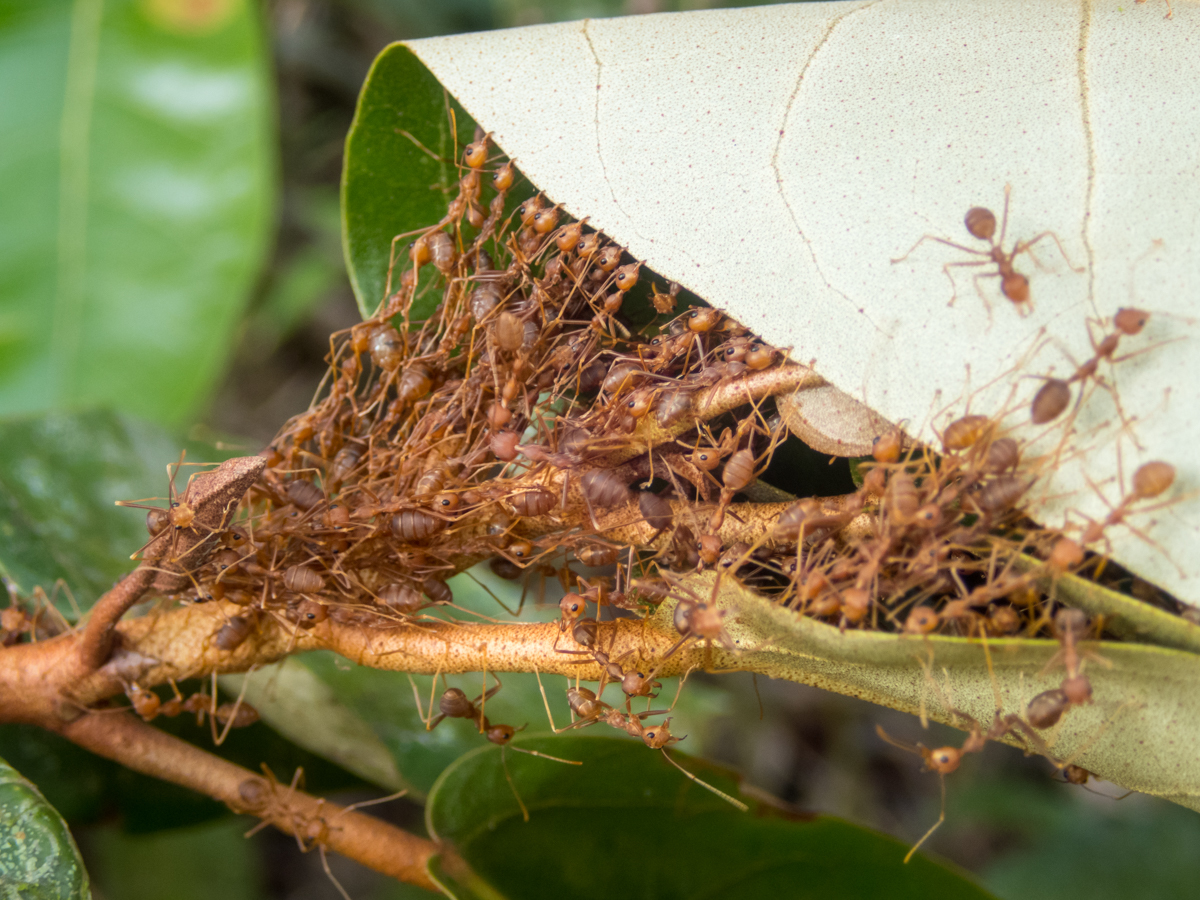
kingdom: Animalia
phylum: Arthropoda
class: Insecta
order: Hymenoptera
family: Formicidae
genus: Oecophylla
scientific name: Oecophylla smaragdina
